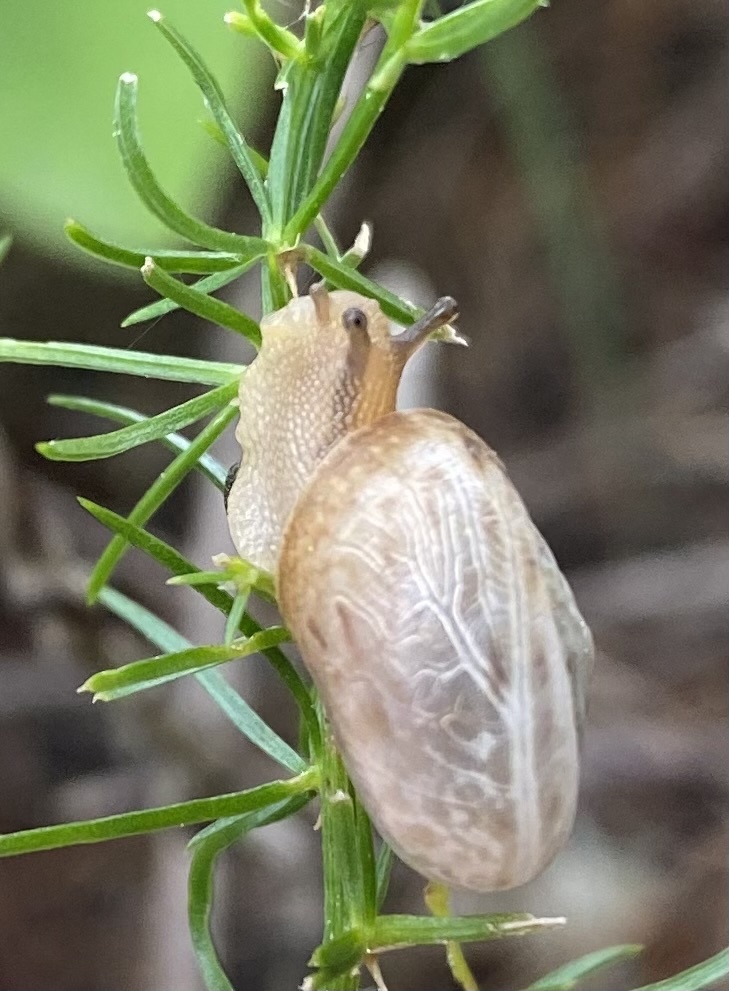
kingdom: Animalia
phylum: Mollusca
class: Gastropoda
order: Stylommatophora
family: Hygromiidae
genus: Monacha
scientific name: Monacha cartusiana
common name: Carthusian snail
